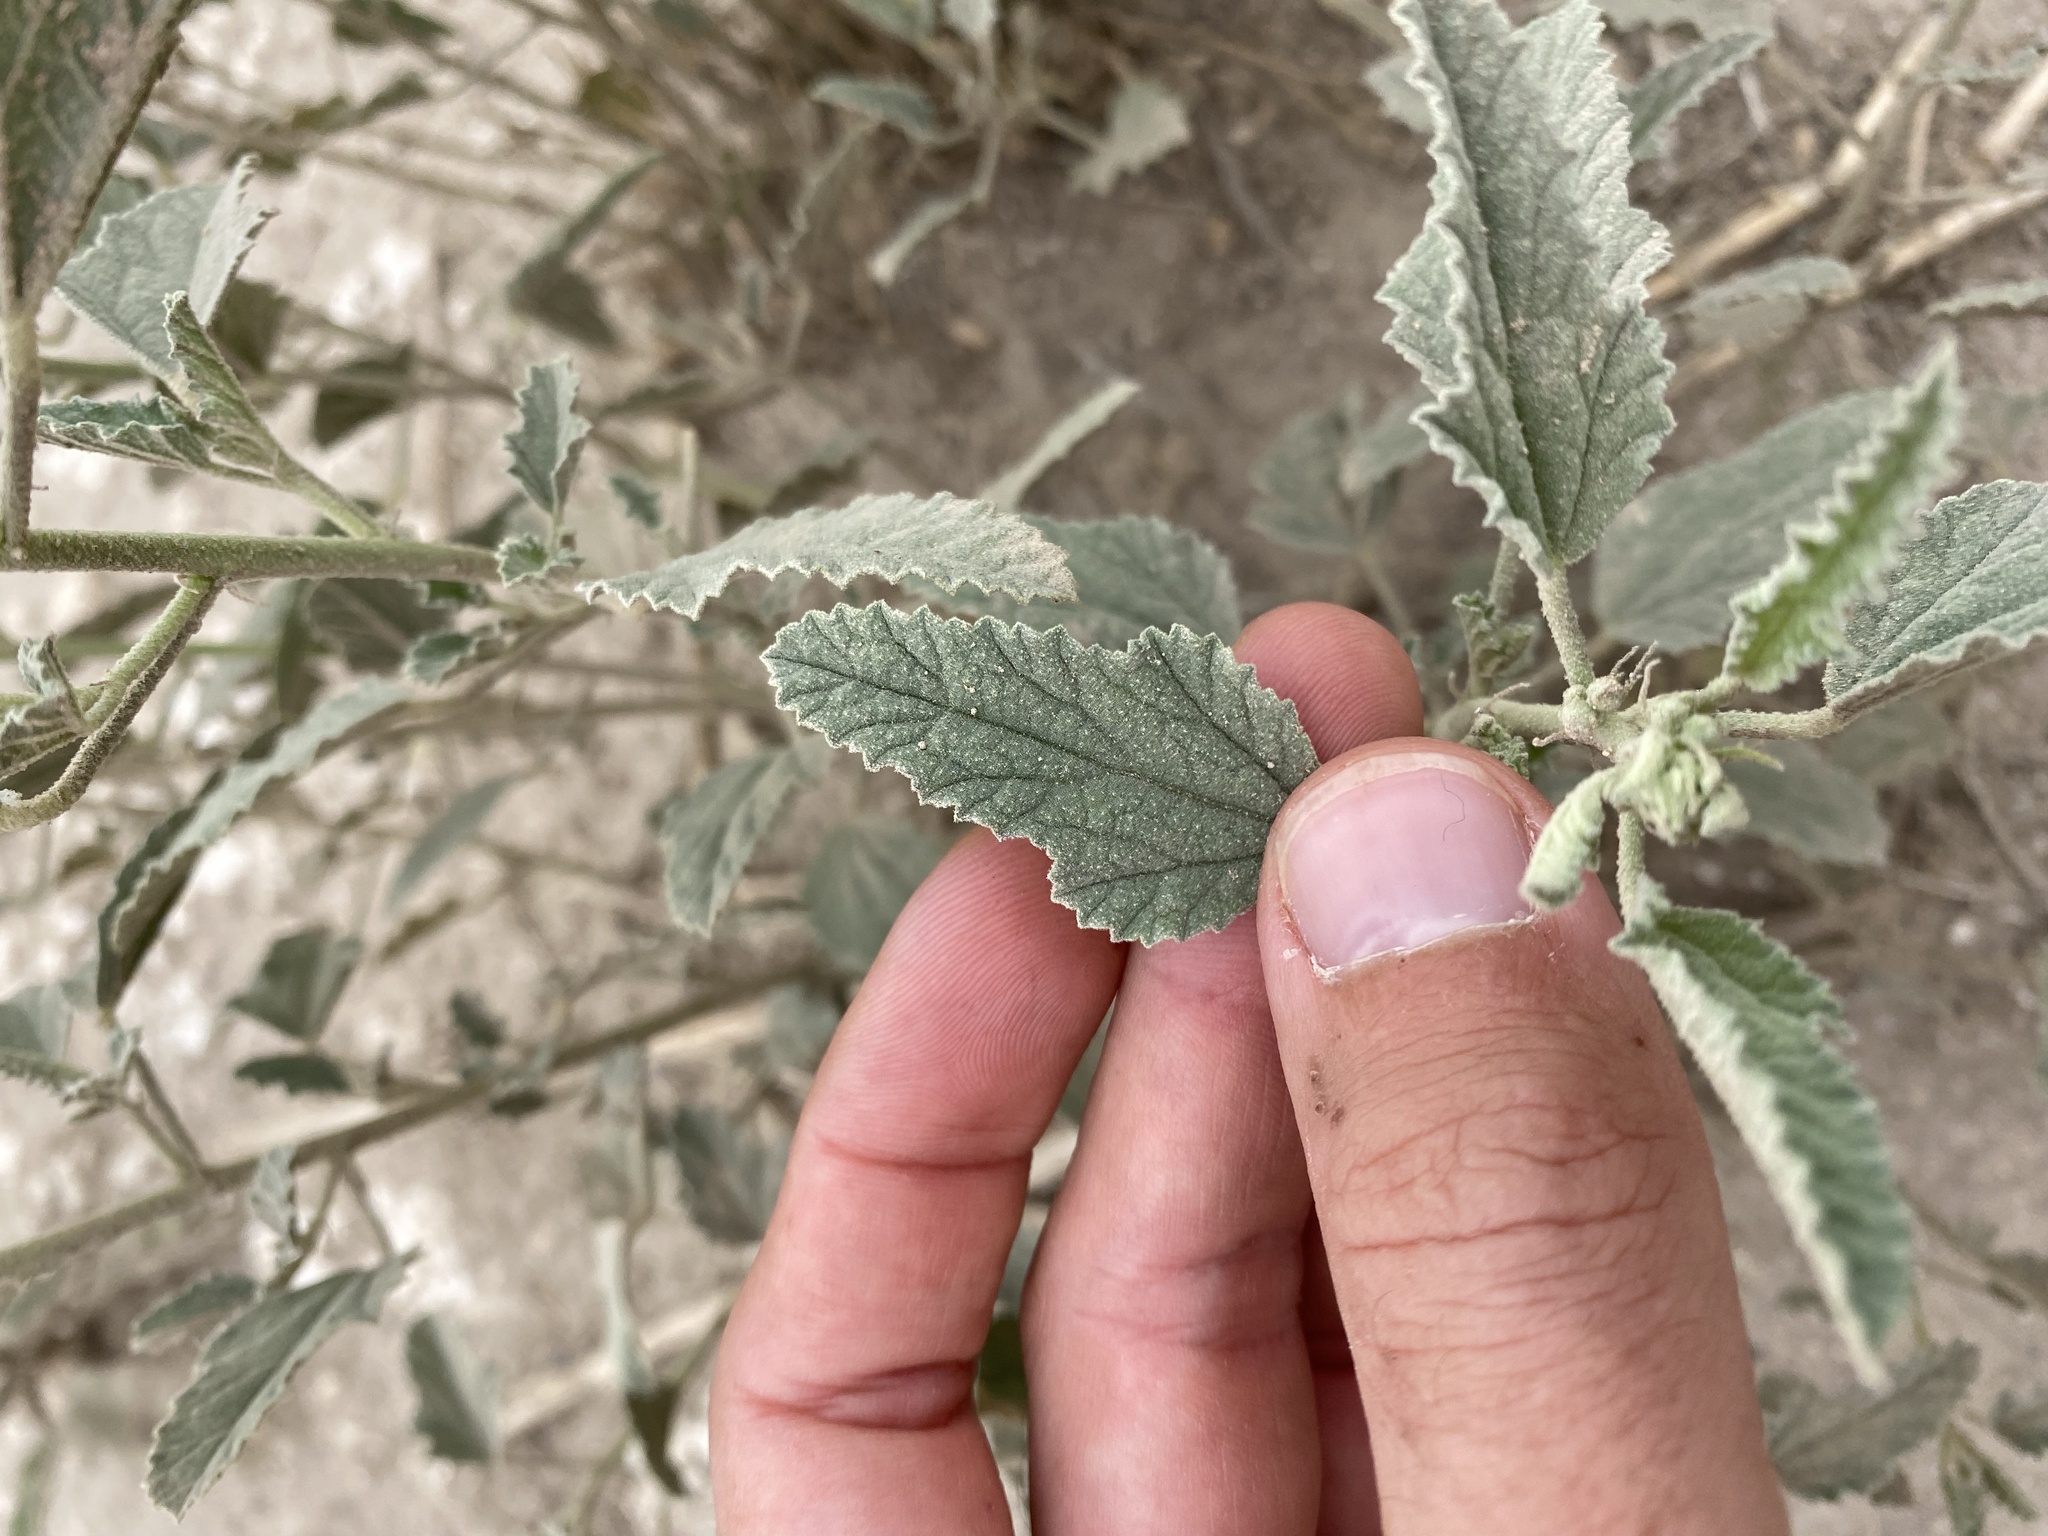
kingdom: Plantae
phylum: Tracheophyta
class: Magnoliopsida
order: Malvales
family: Malvaceae
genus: Sphaeralcea
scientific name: Sphaeralcea incana
